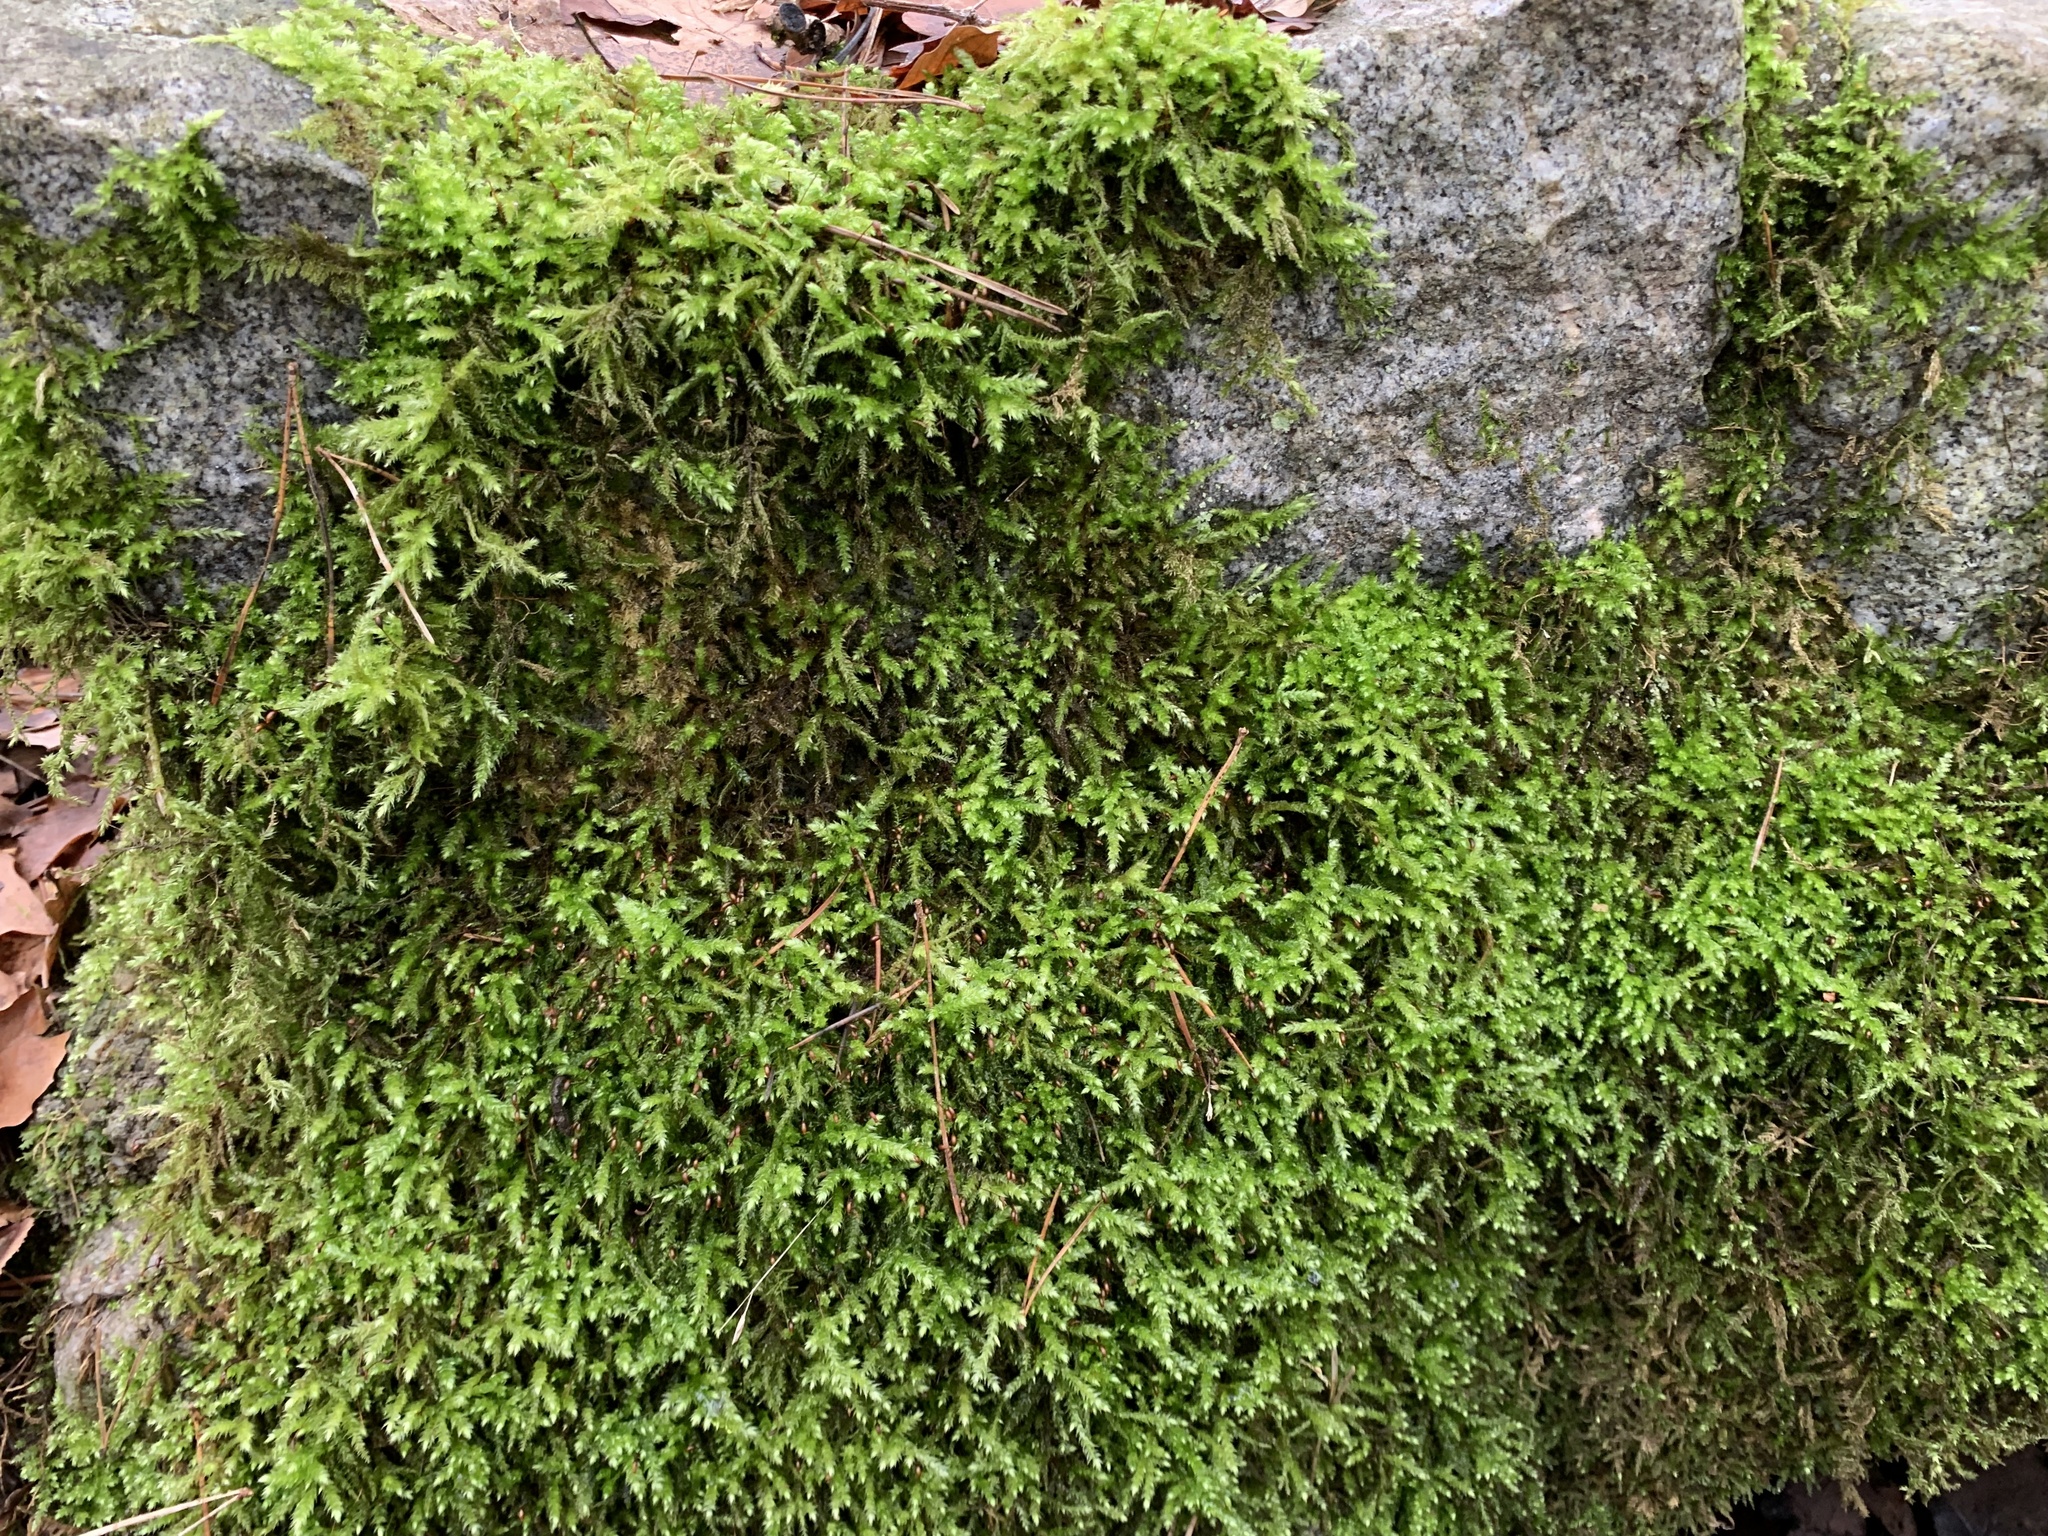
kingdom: Plantae
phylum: Bryophyta
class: Bryopsida
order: Hypnales
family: Brachytheciaceae
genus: Brachythecium
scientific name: Brachythecium rutabulum
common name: Rough-stalked feather-moss
